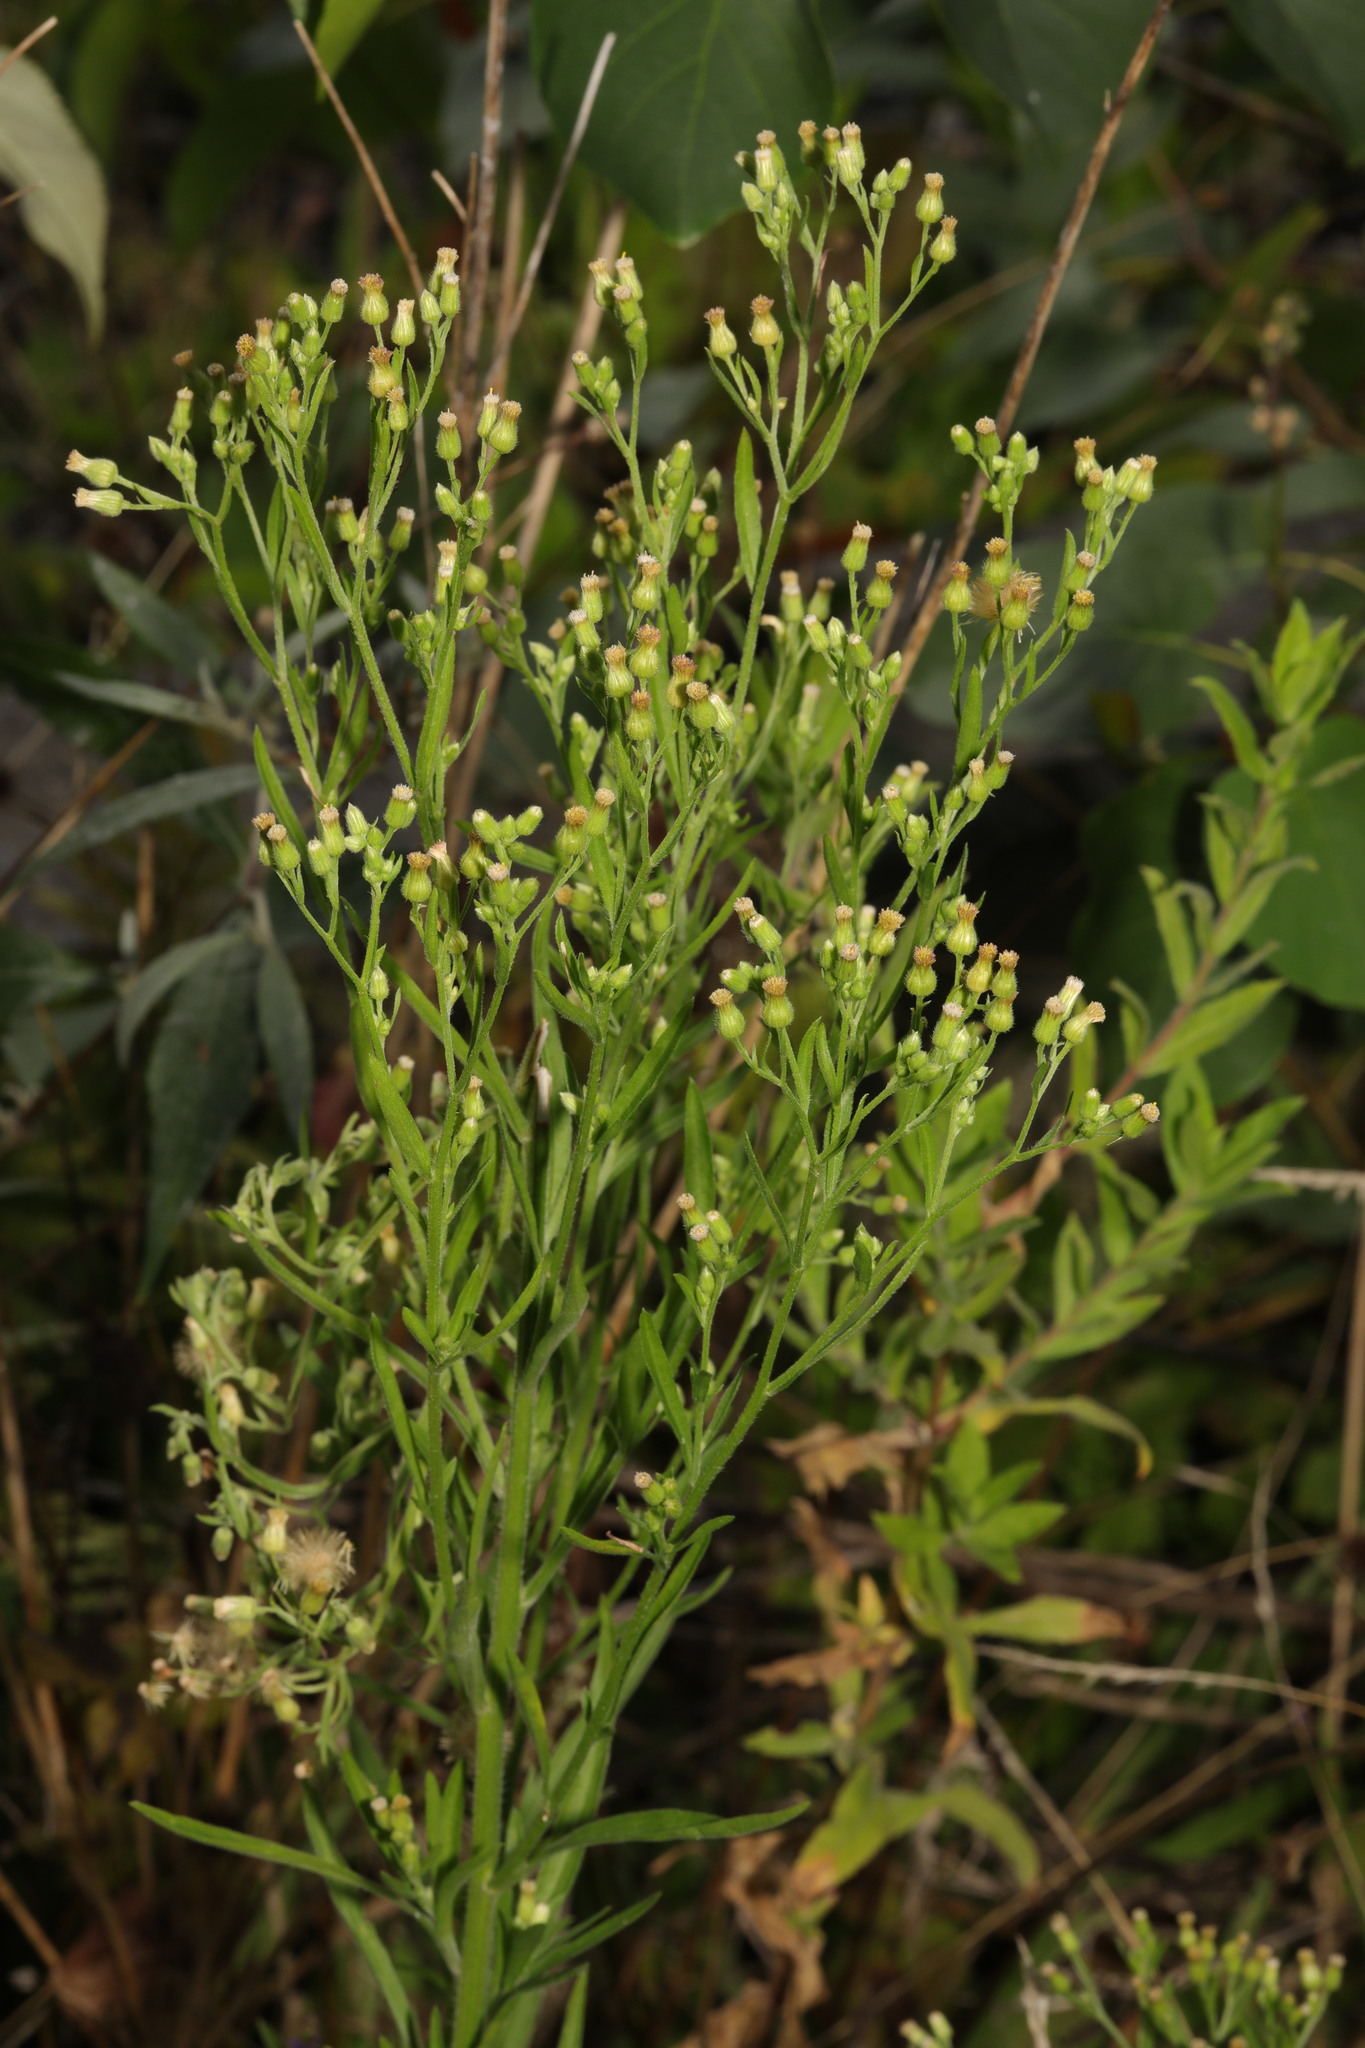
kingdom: Plantae
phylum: Tracheophyta
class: Magnoliopsida
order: Asterales
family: Asteraceae
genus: Erigeron
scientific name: Erigeron sumatrensis
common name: Daisy
